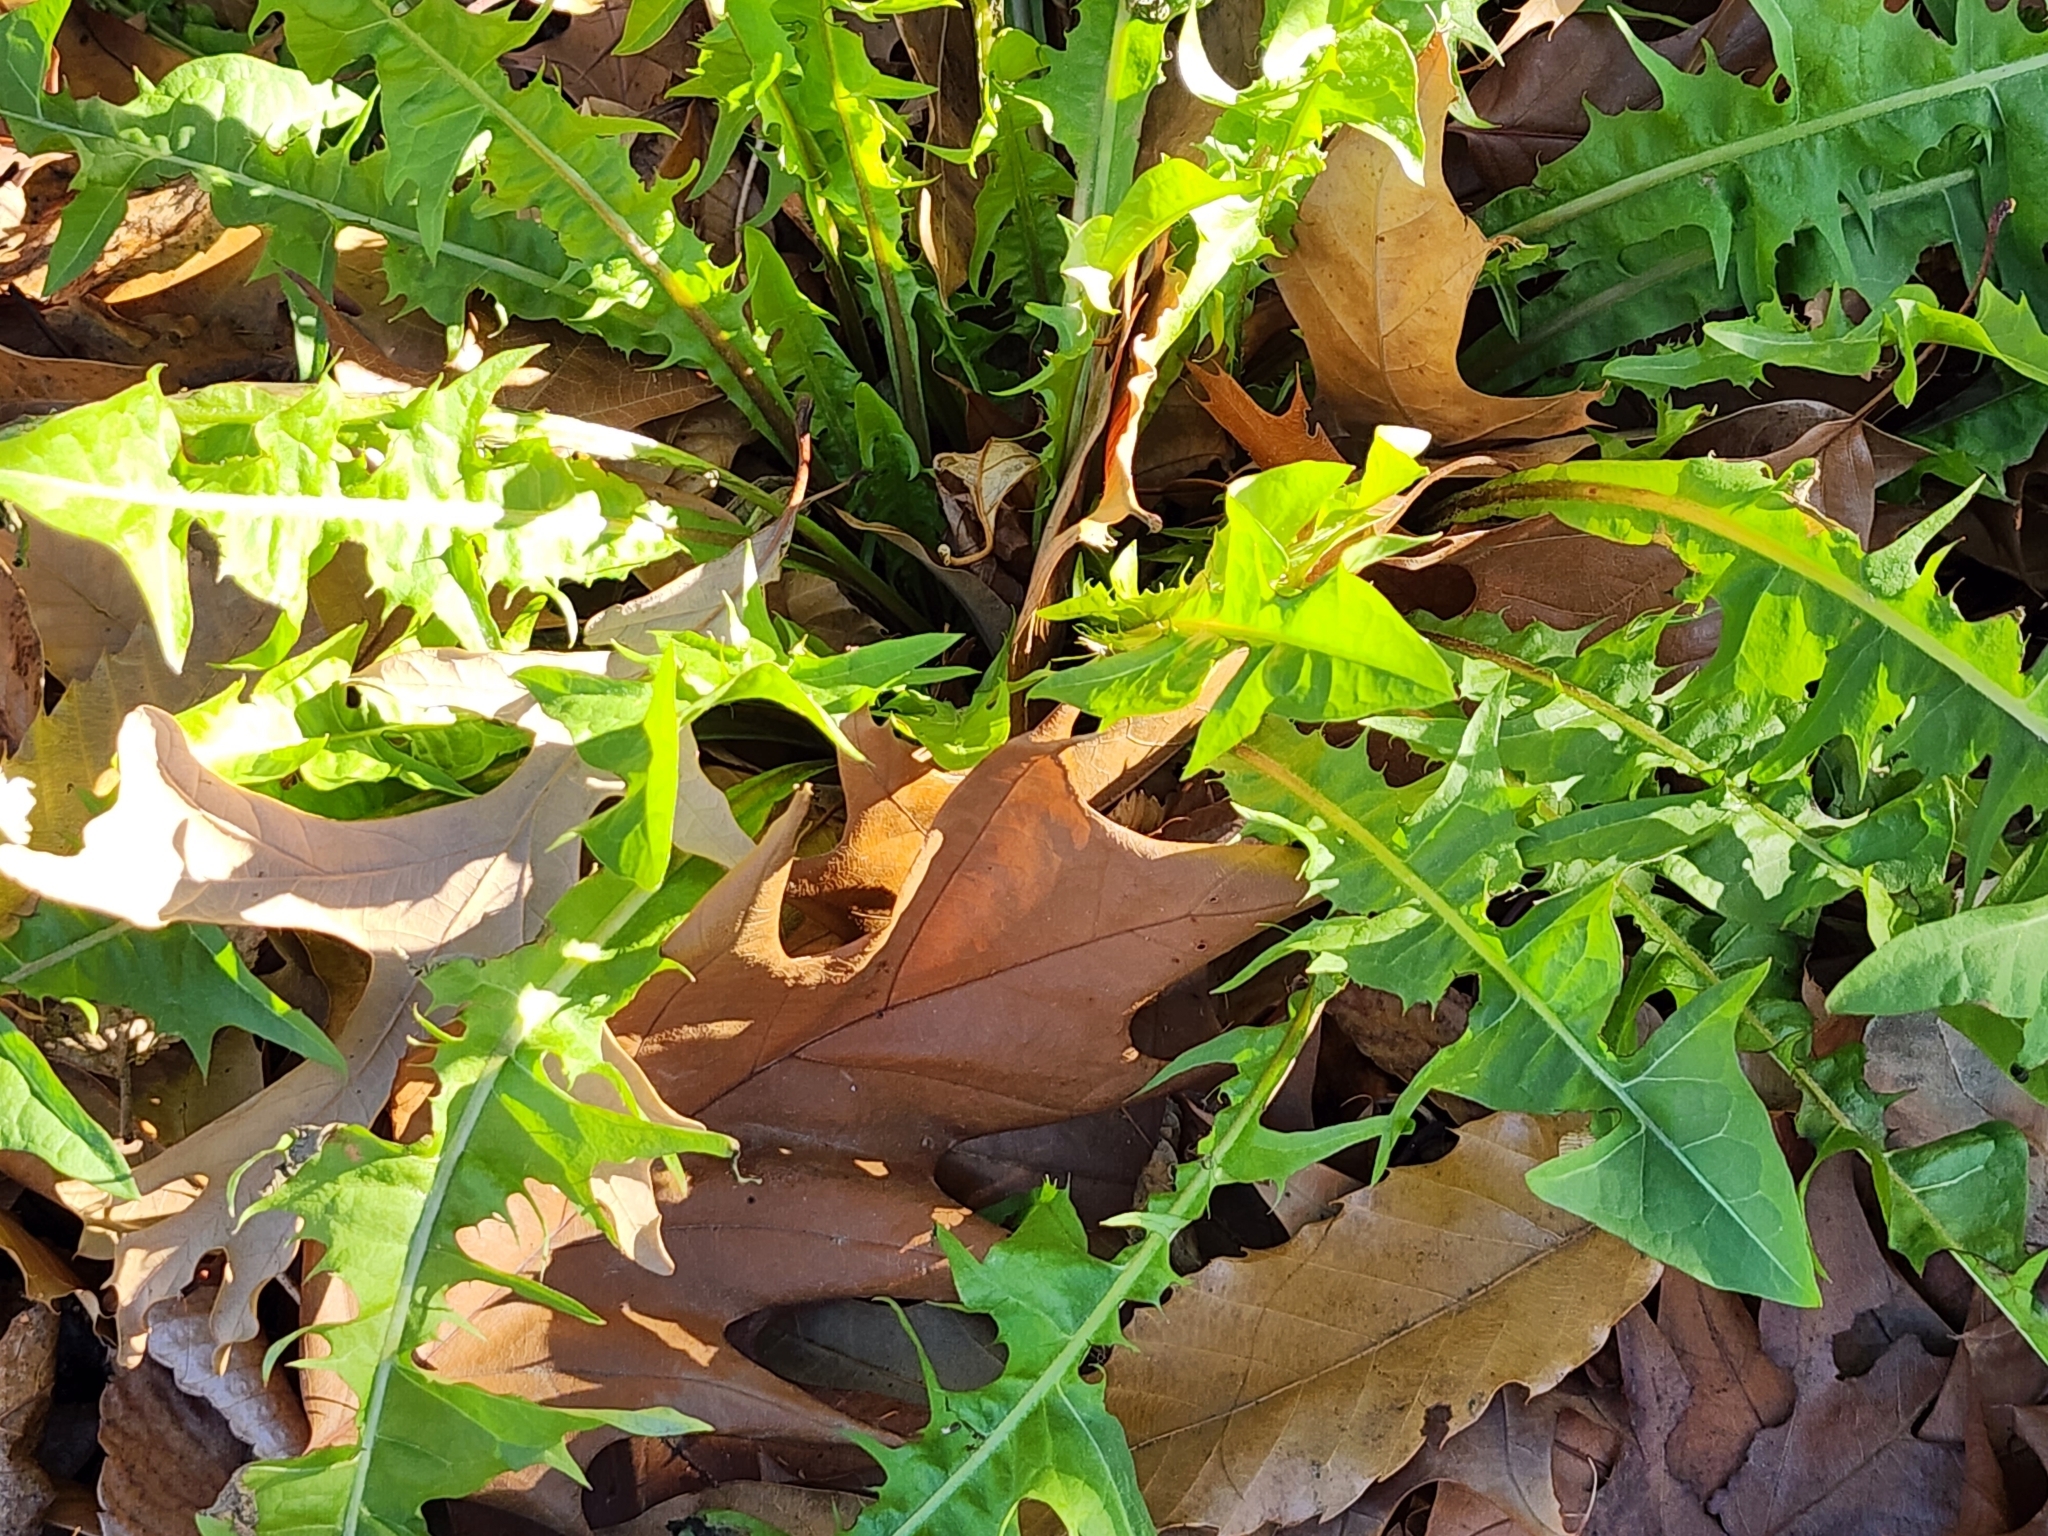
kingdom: Plantae
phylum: Tracheophyta
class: Magnoliopsida
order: Asterales
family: Asteraceae
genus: Taraxacum
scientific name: Taraxacum officinale
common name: Common dandelion
